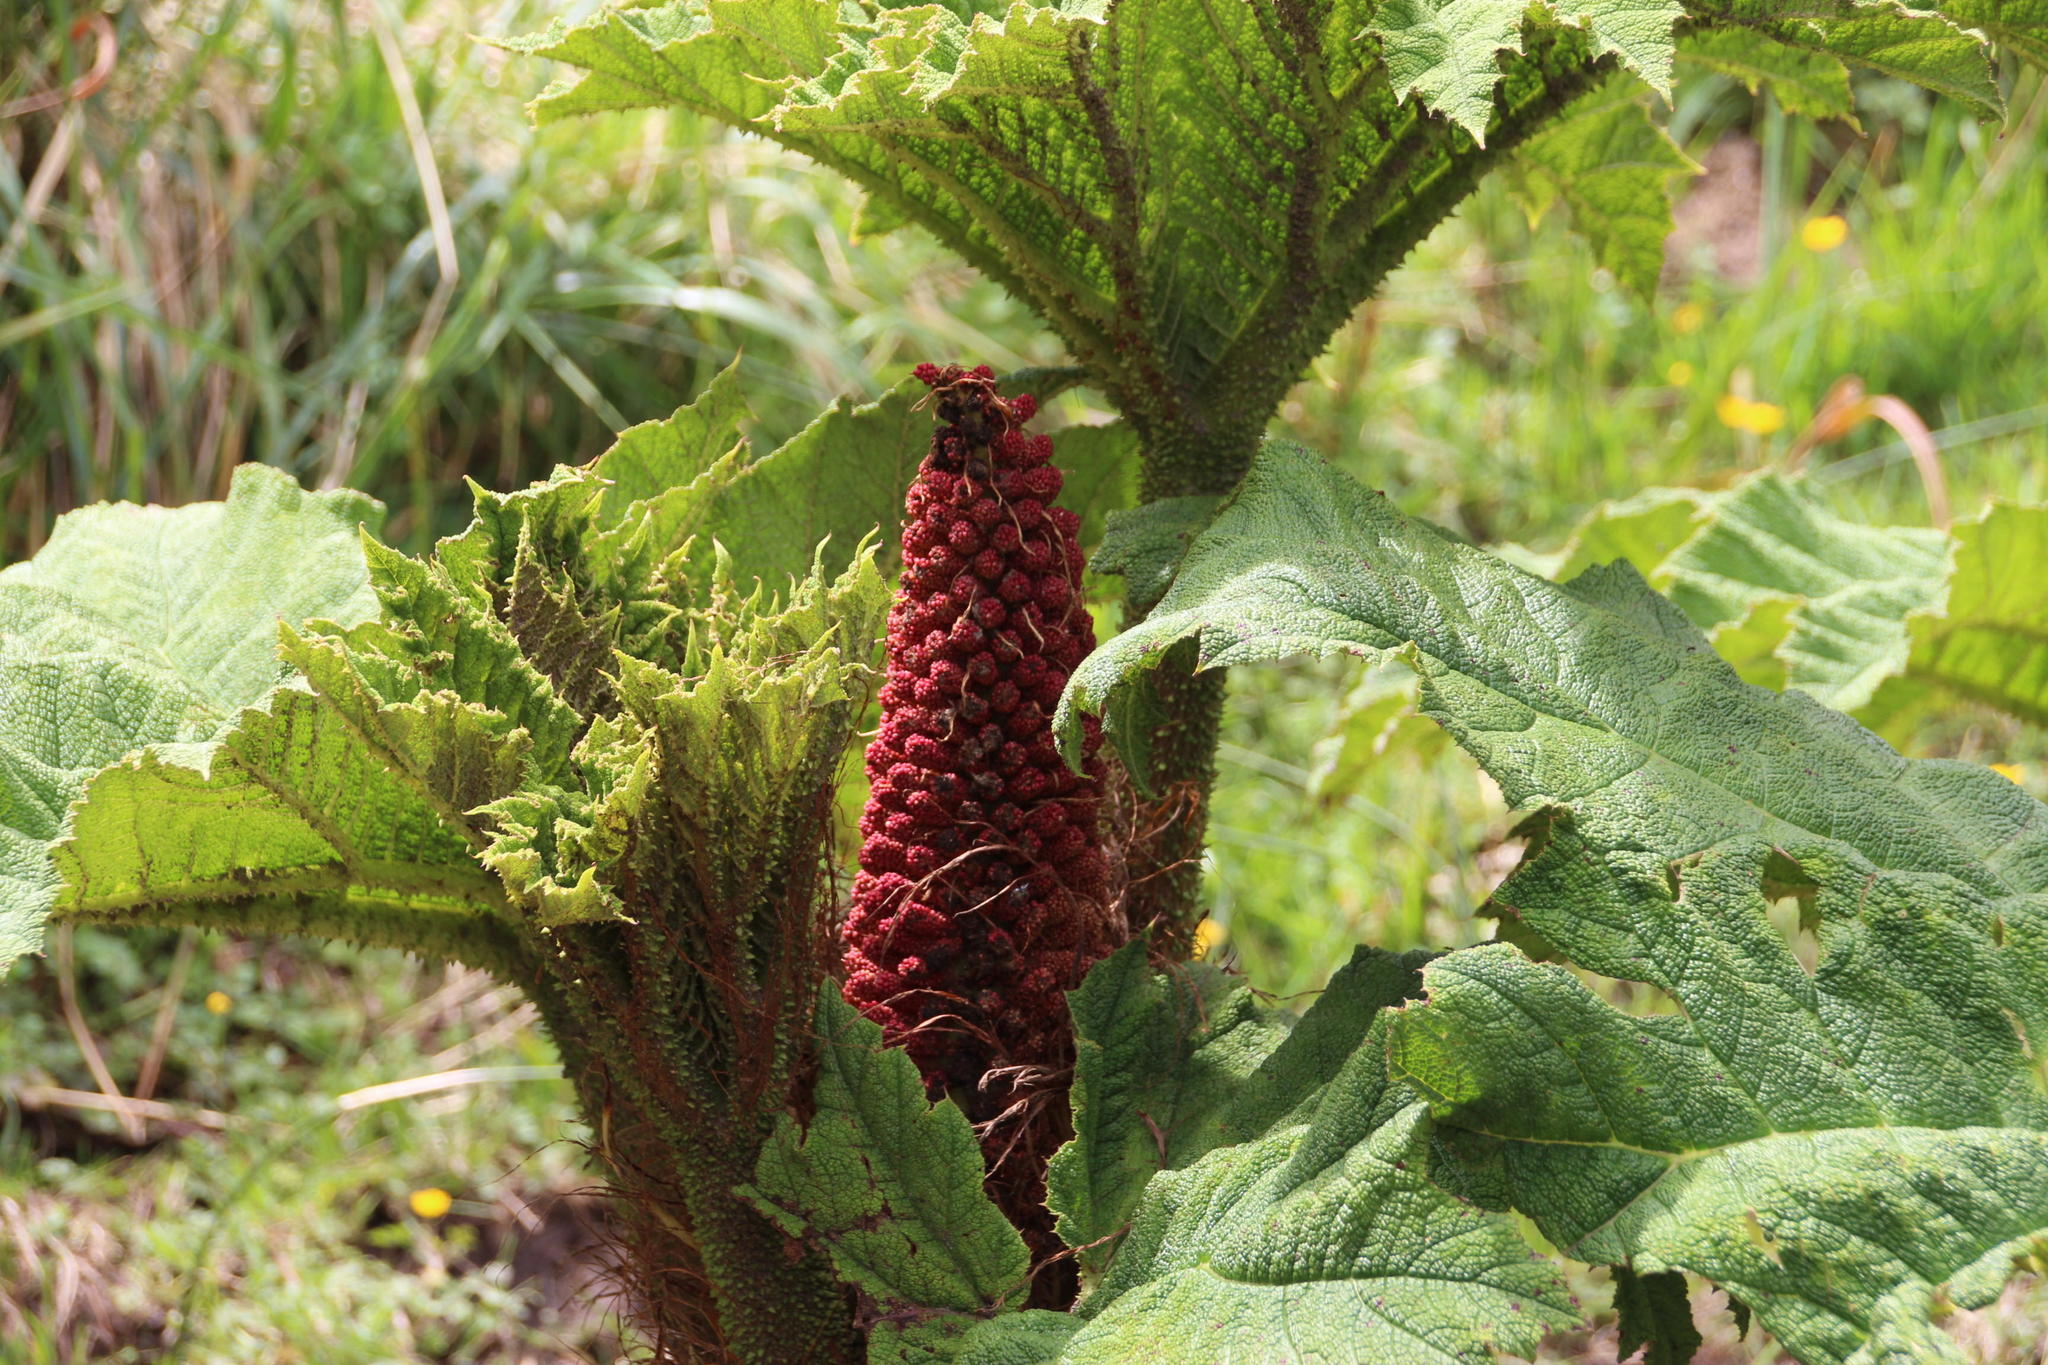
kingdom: Plantae
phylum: Tracheophyta
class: Magnoliopsida
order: Gunnerales
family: Gunneraceae
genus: Gunnera
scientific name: Gunnera tinctoria
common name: Giant-rhubarb
